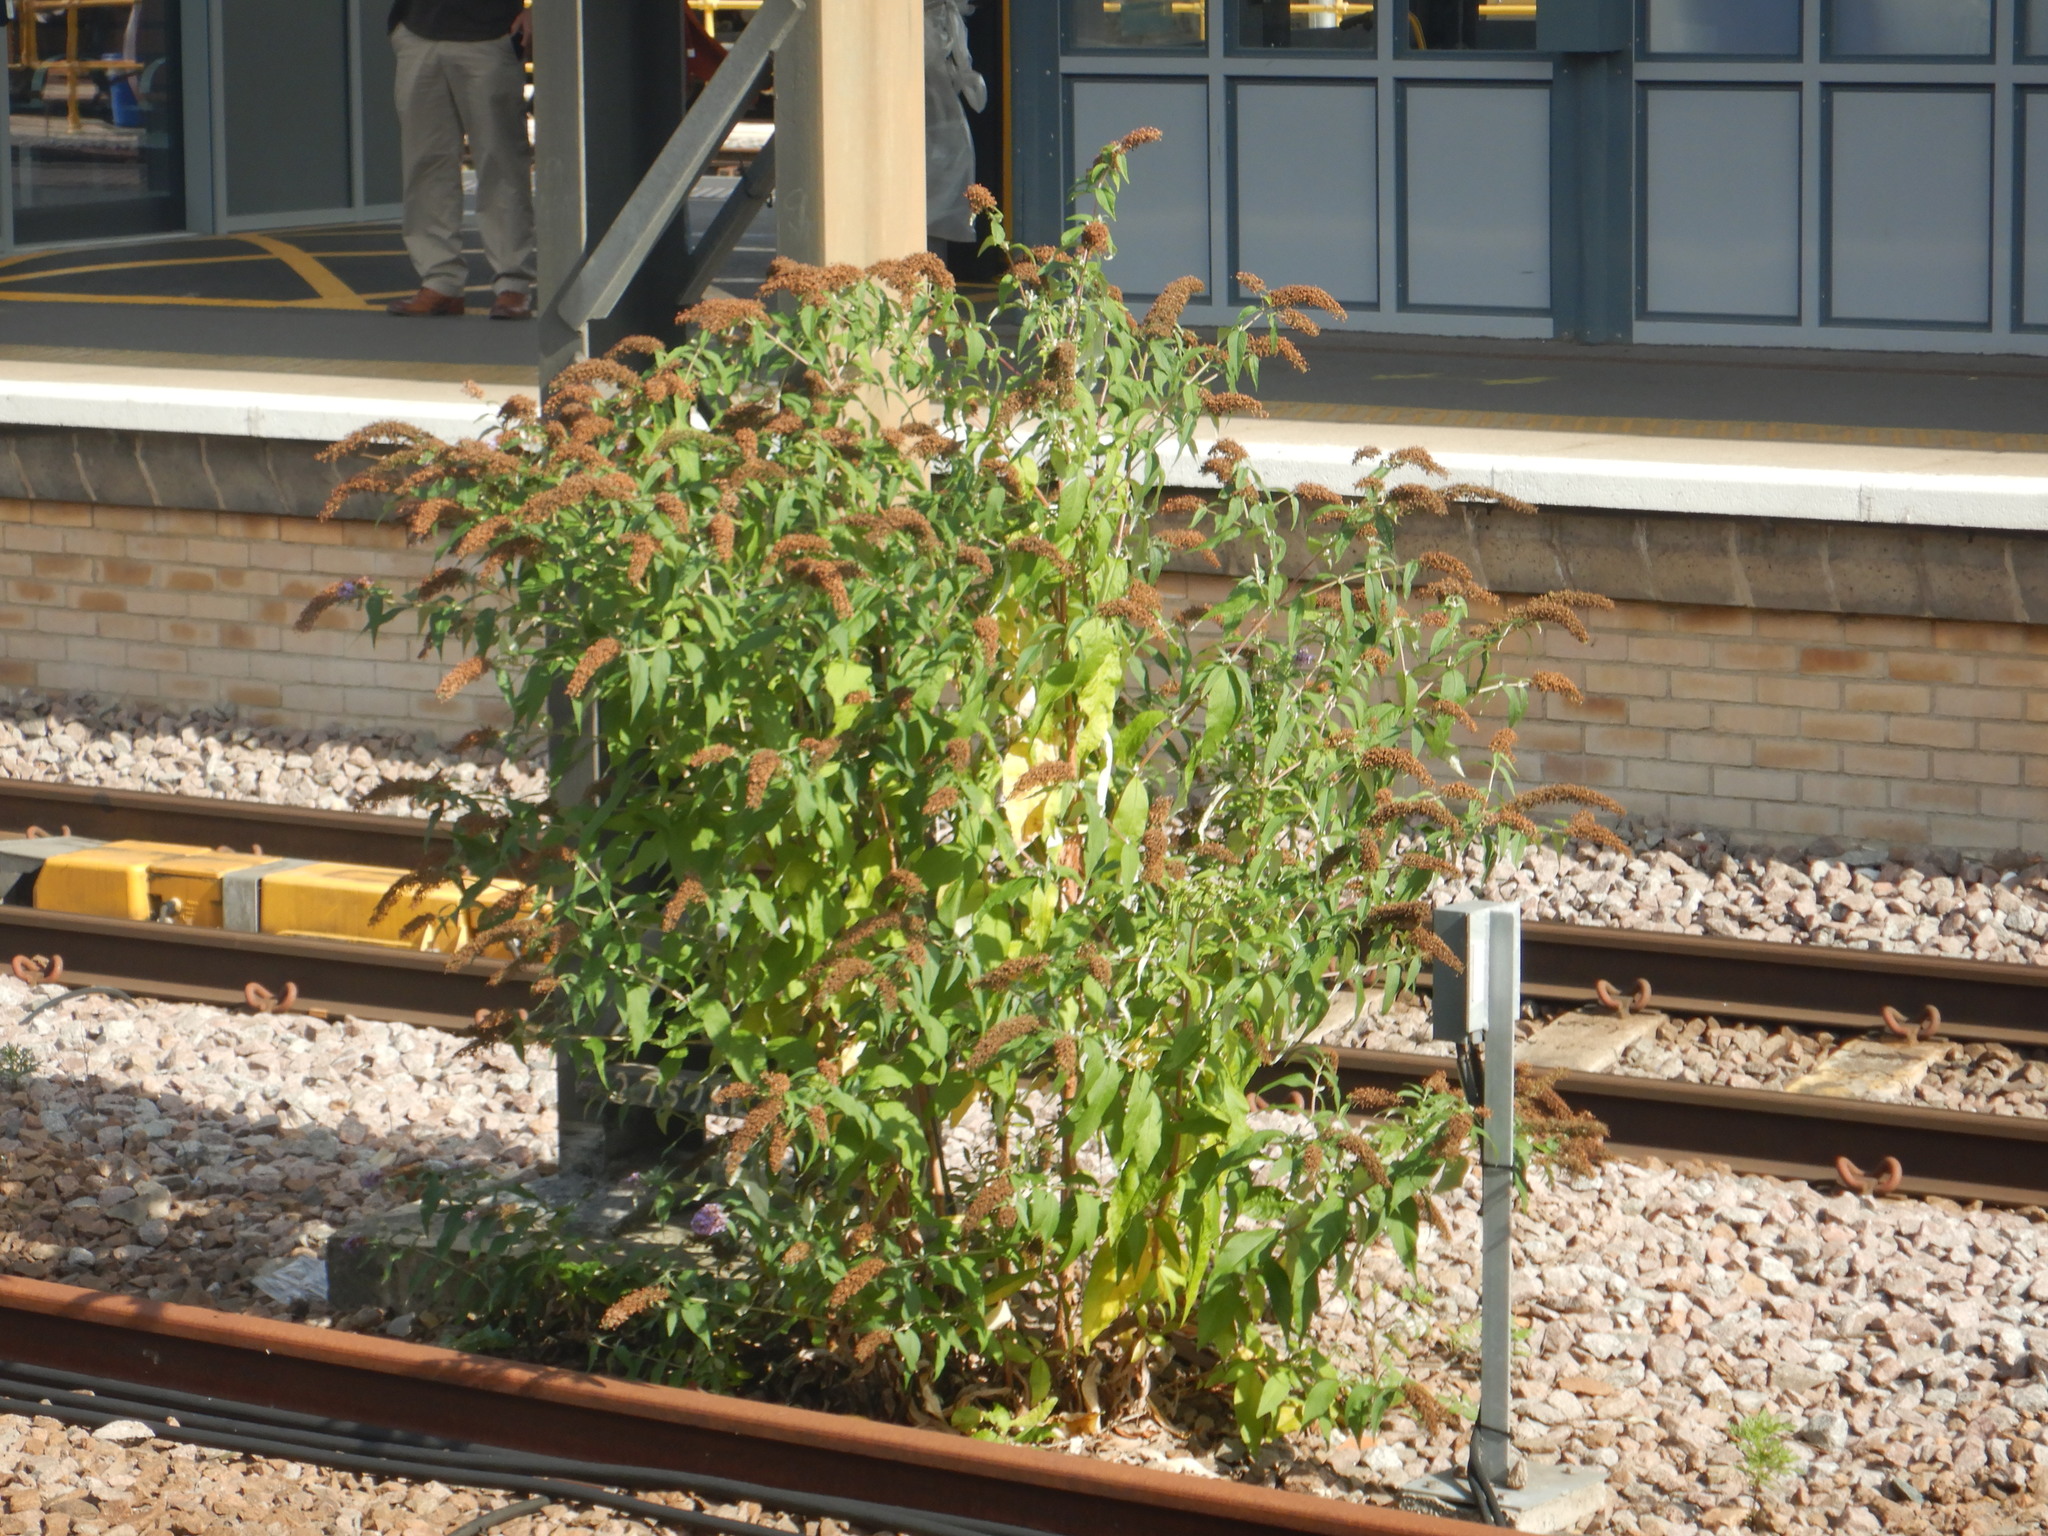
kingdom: Plantae
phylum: Tracheophyta
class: Magnoliopsida
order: Lamiales
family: Scrophulariaceae
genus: Buddleja
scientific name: Buddleja davidii
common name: Butterfly-bush
